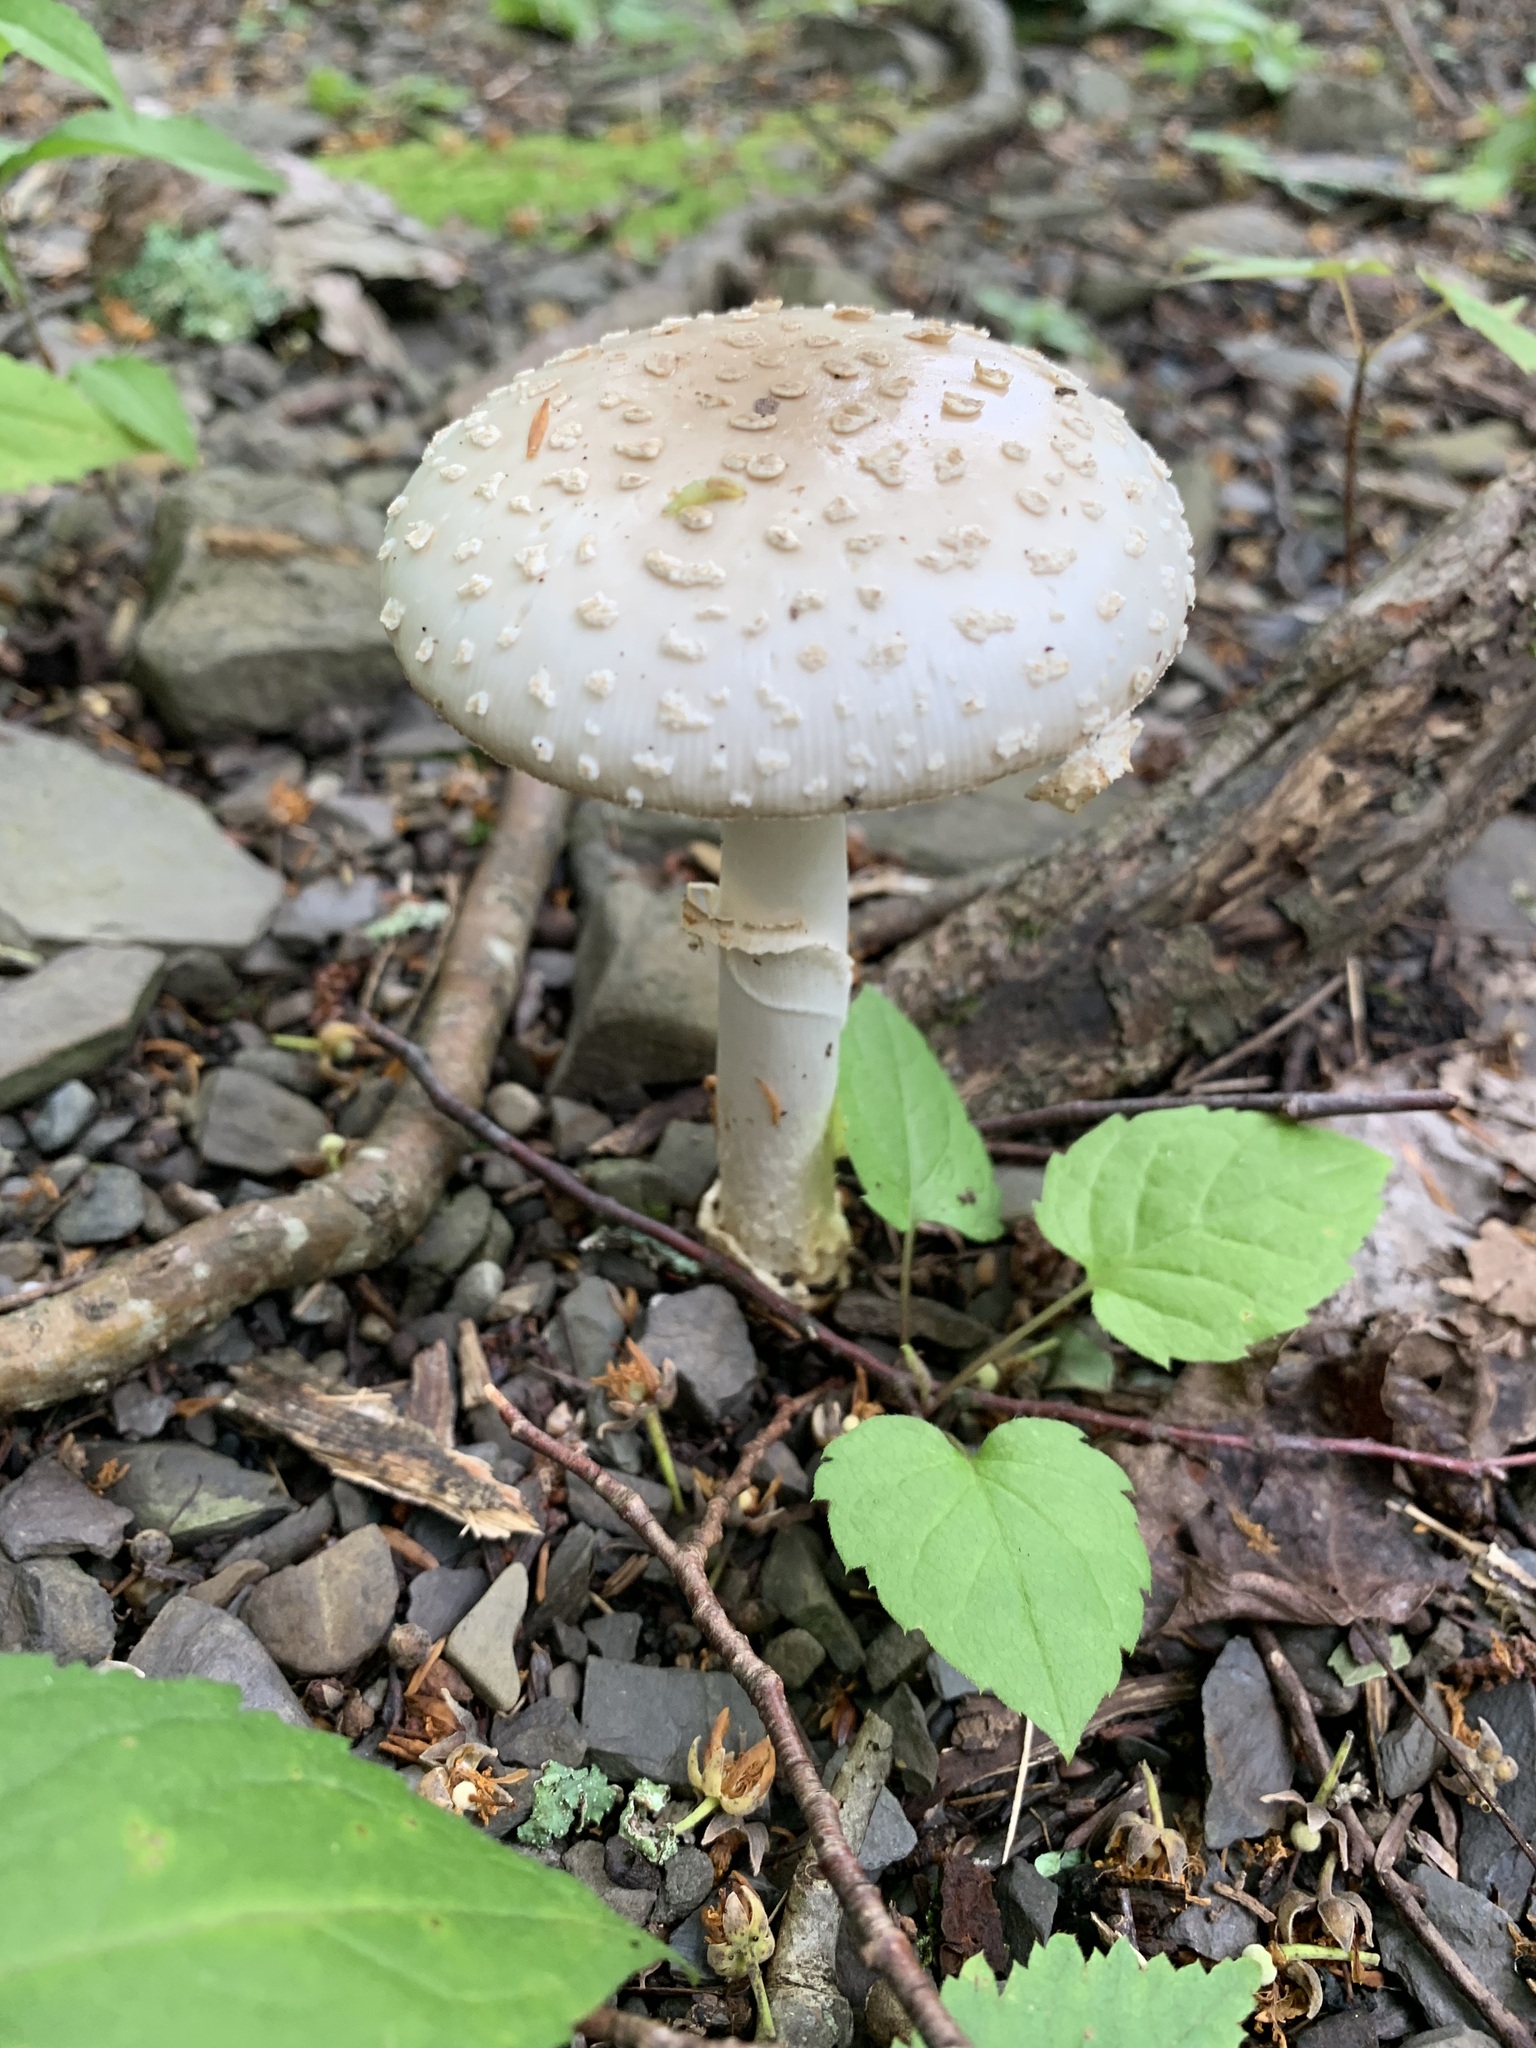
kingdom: Fungi
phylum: Basidiomycota
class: Agaricomycetes
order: Agaricales
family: Amanitaceae
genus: Amanita
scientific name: Amanita multisquamosa
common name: Small funnel-veil amanita
